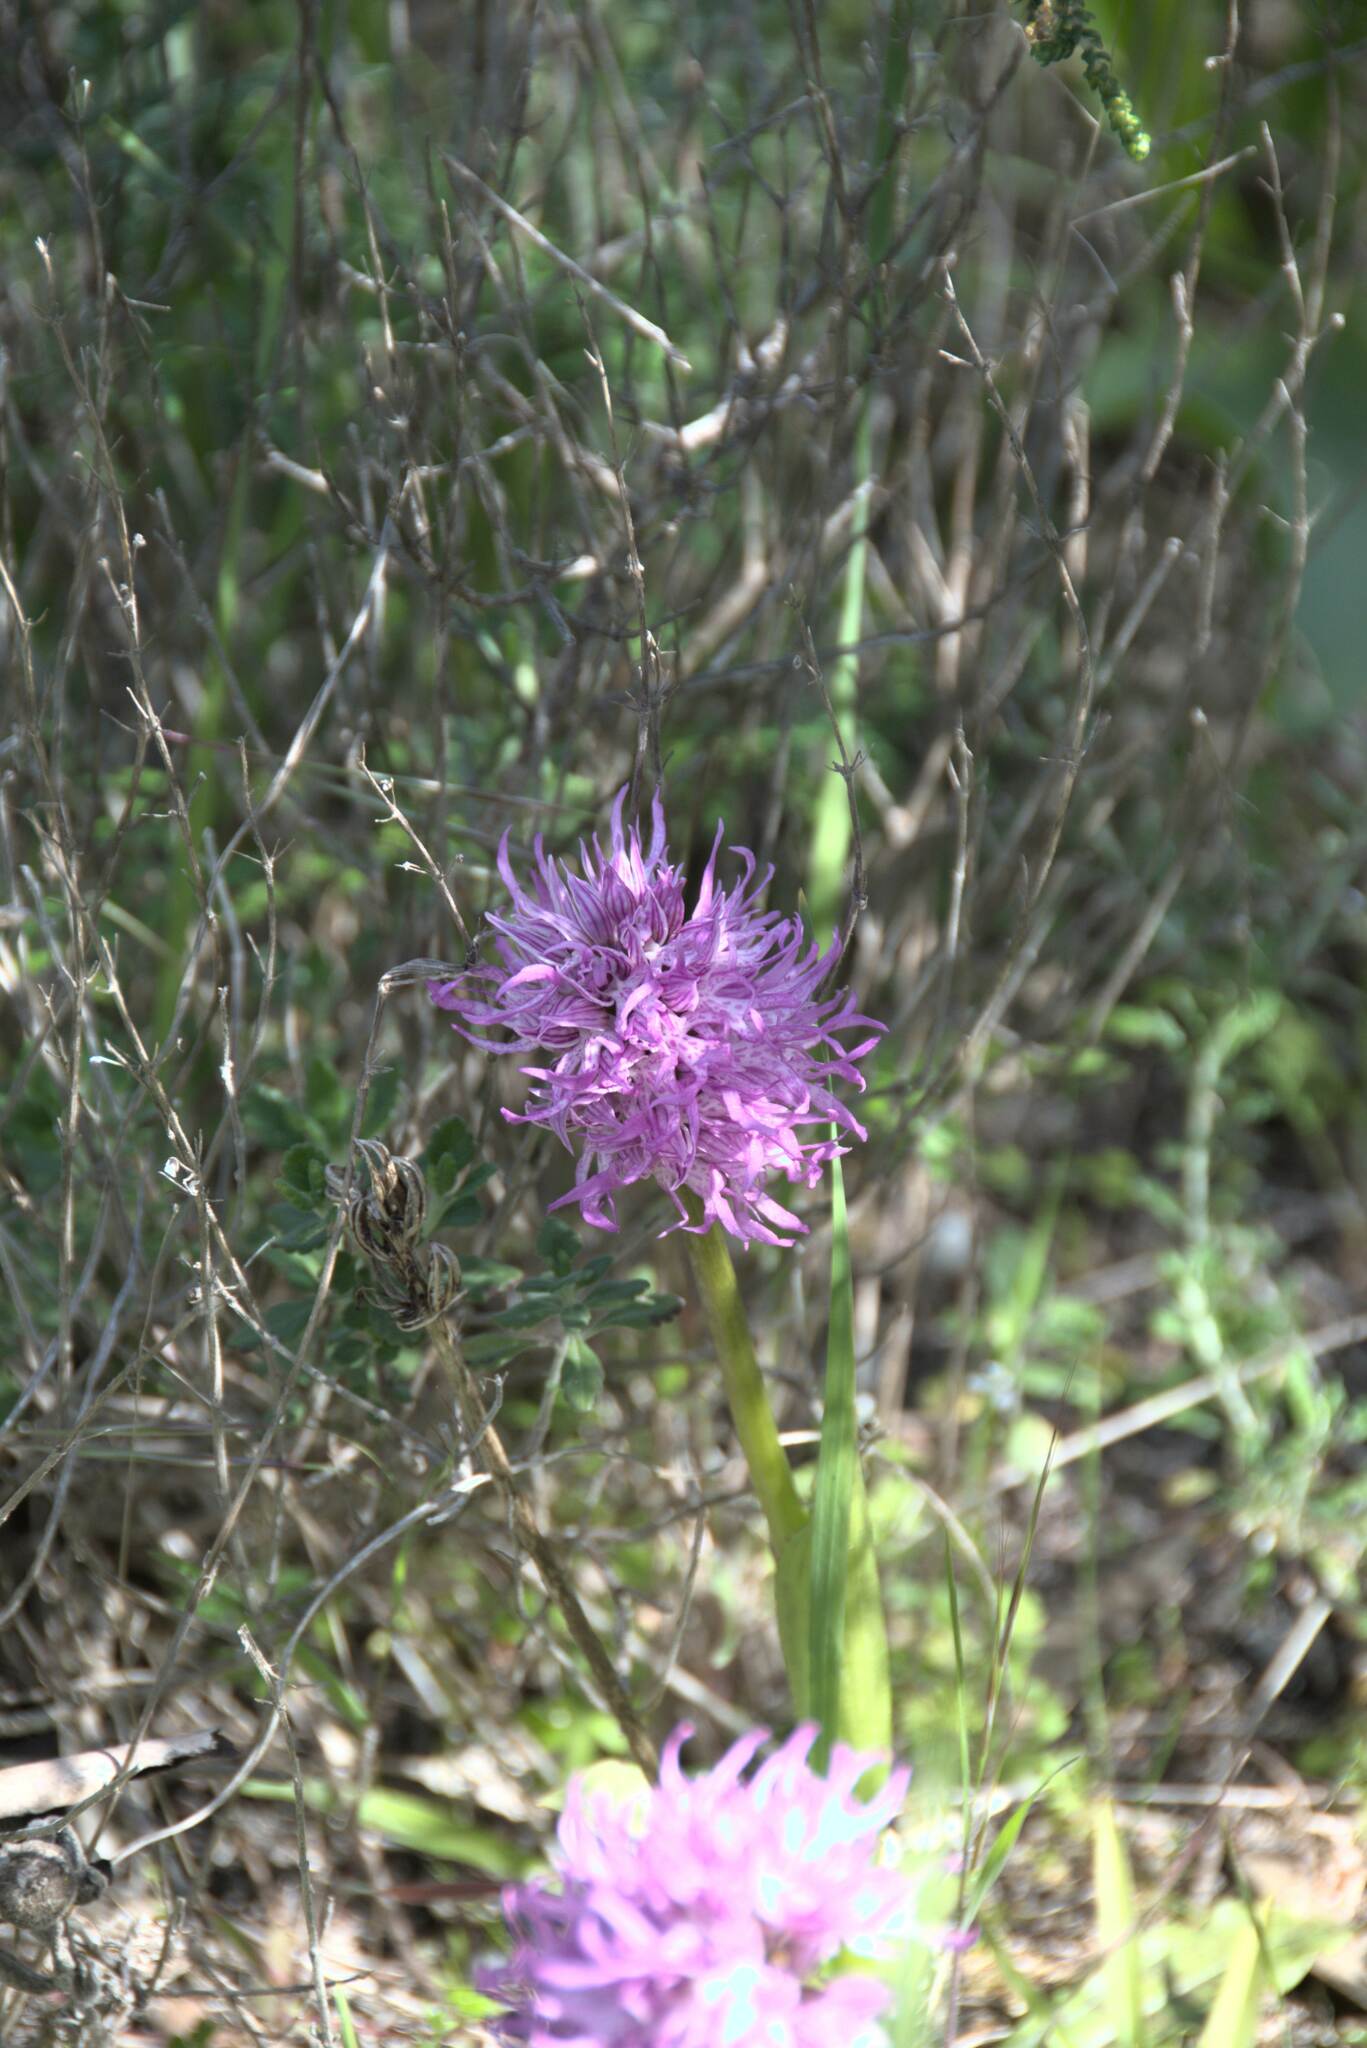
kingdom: Plantae
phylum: Tracheophyta
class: Liliopsida
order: Asparagales
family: Orchidaceae
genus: Orchis
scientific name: Orchis italica
